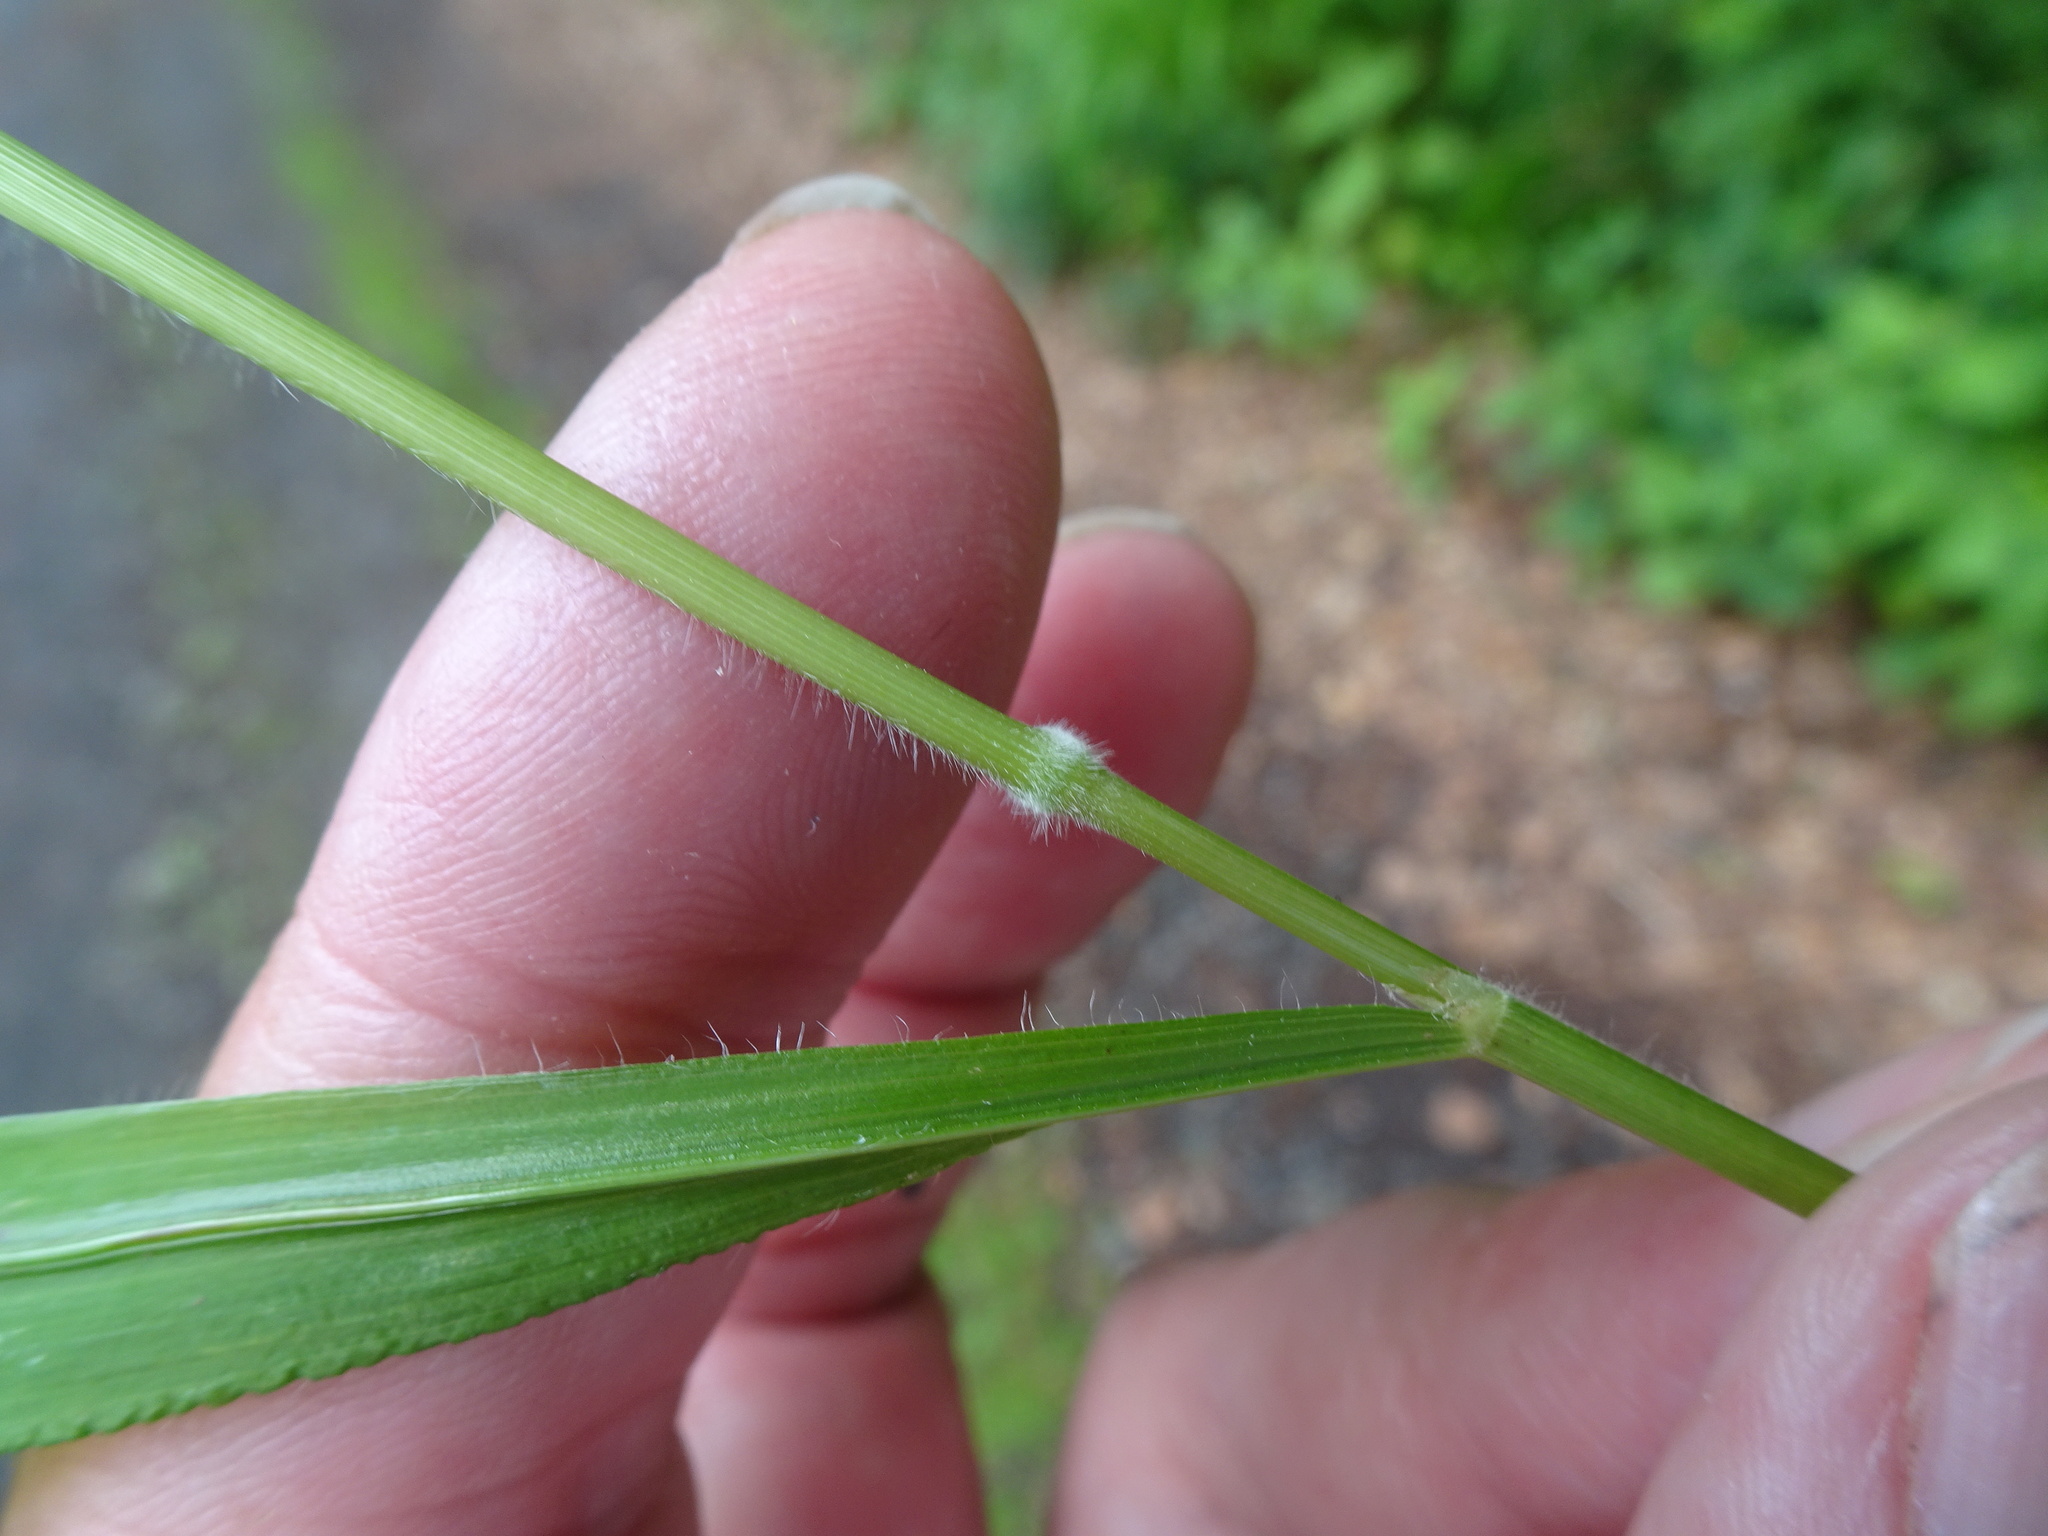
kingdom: Plantae
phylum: Tracheophyta
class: Liliopsida
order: Poales
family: Poaceae
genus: Brachypodium
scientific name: Brachypodium sylvaticum
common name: False-brome
